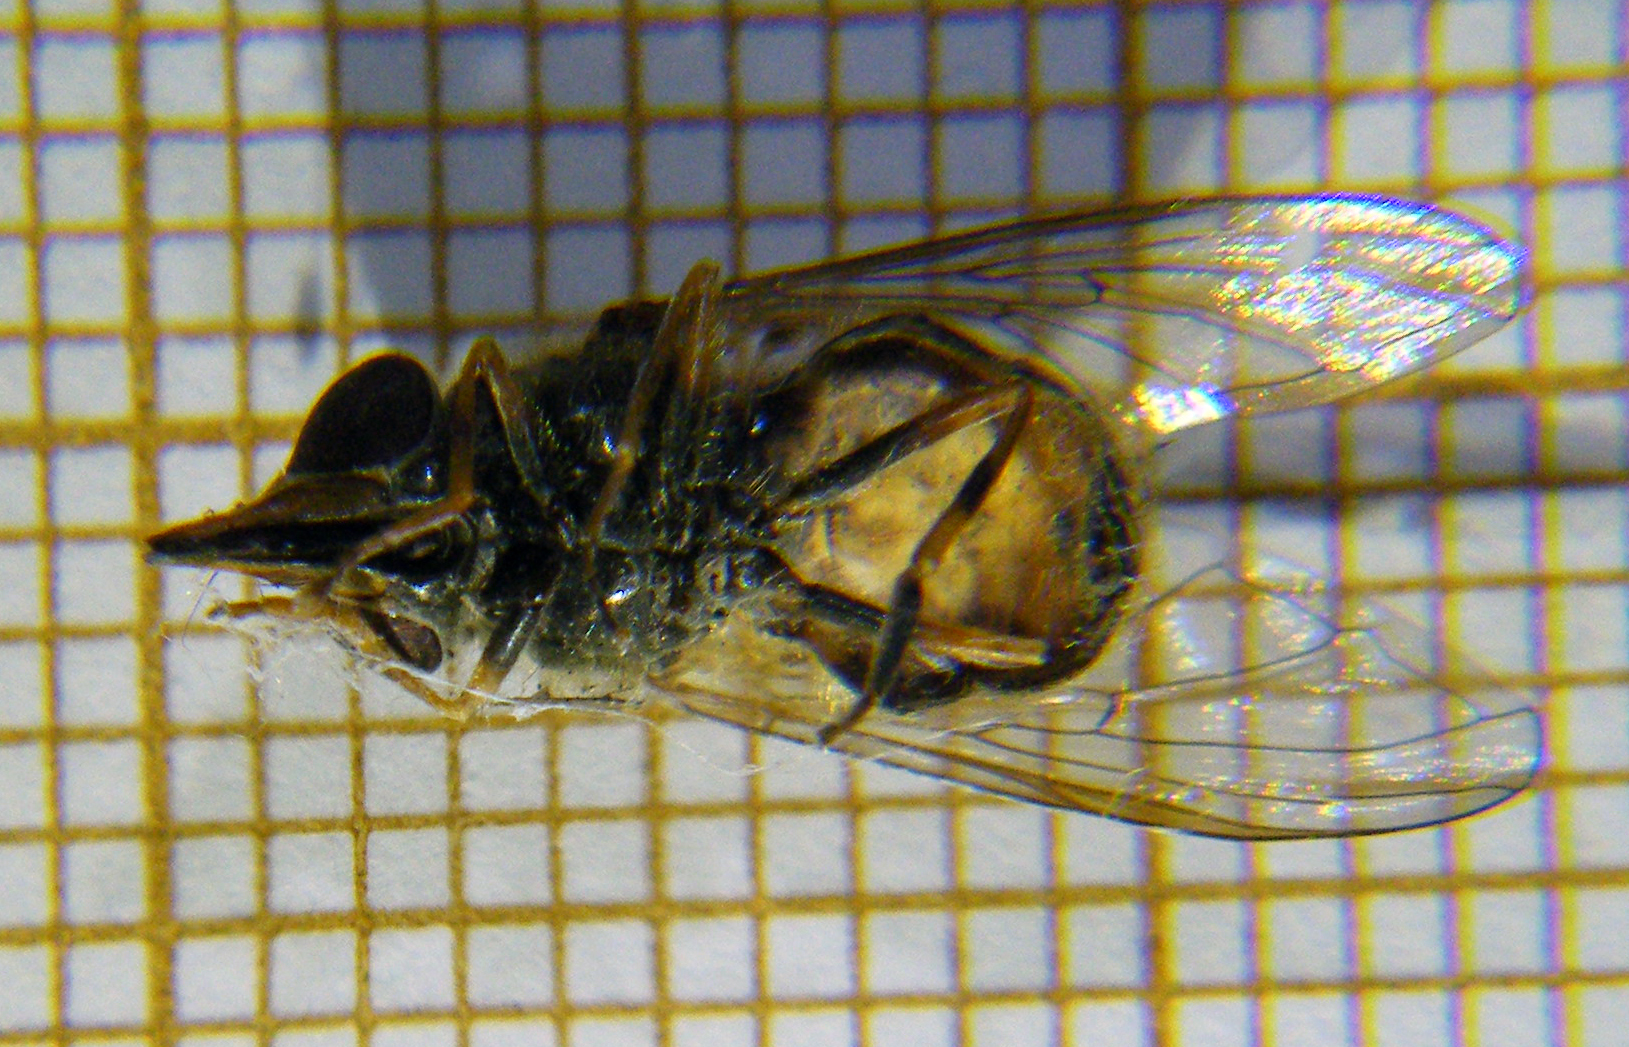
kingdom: Animalia
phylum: Arthropoda
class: Insecta
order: Diptera
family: Syrphidae
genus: Rhingia
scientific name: Rhingia campestris
